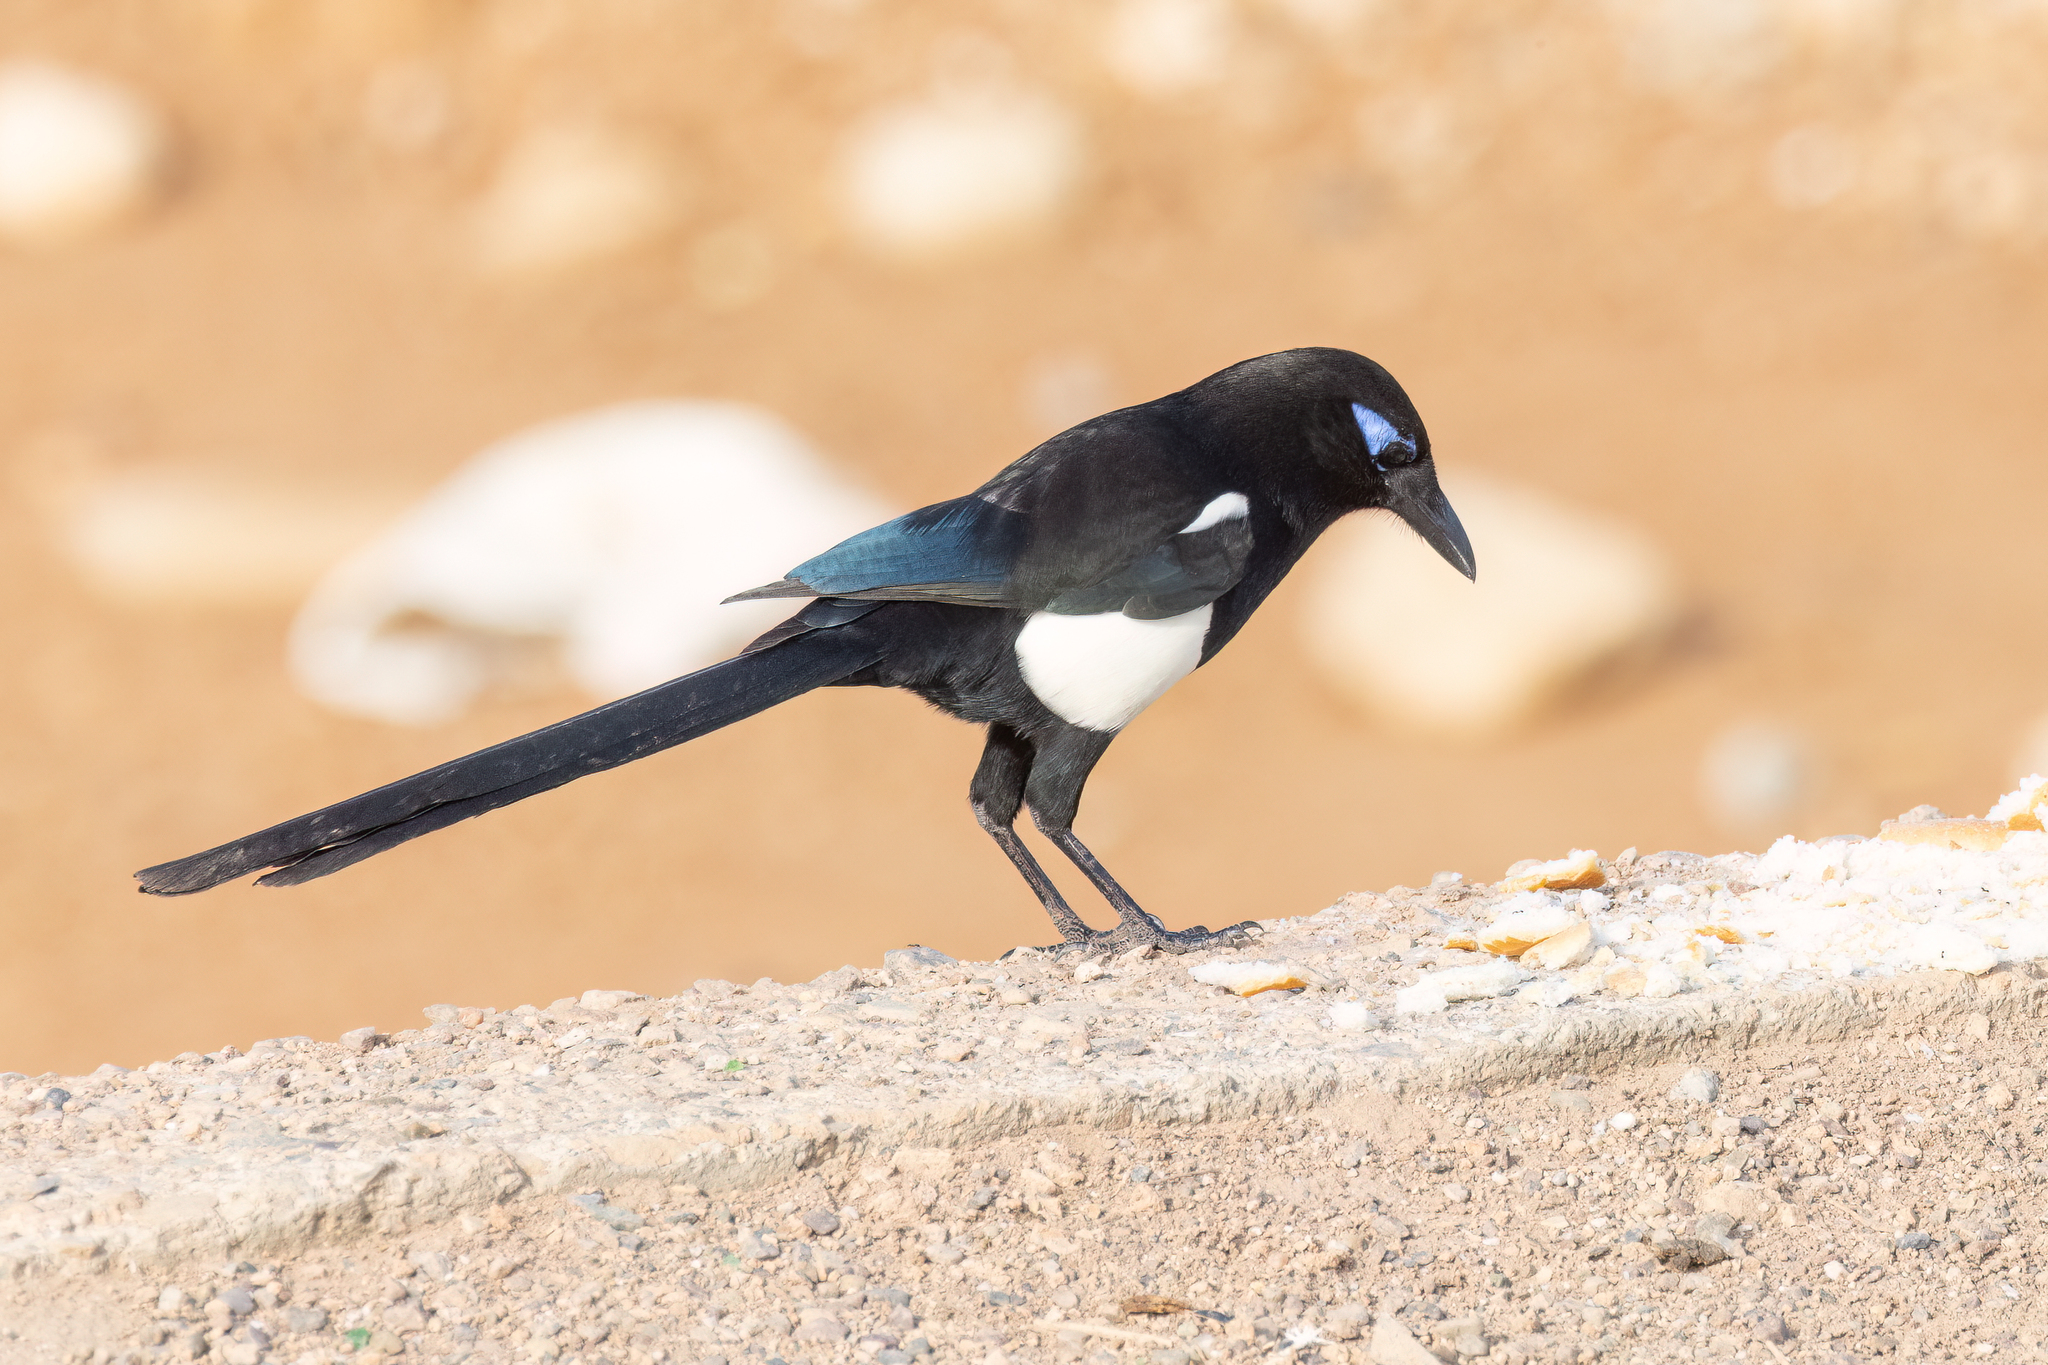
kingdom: Animalia
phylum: Chordata
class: Aves
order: Passeriformes
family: Corvidae
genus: Pica
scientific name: Pica mauritanica
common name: Maghreb magpie
